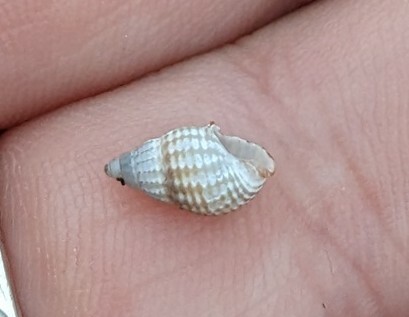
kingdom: Animalia
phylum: Mollusca
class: Gastropoda
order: Neogastropoda
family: Nassariidae
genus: Ilyanassa
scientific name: Ilyanassa trivittata
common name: Three-line mudsnail
